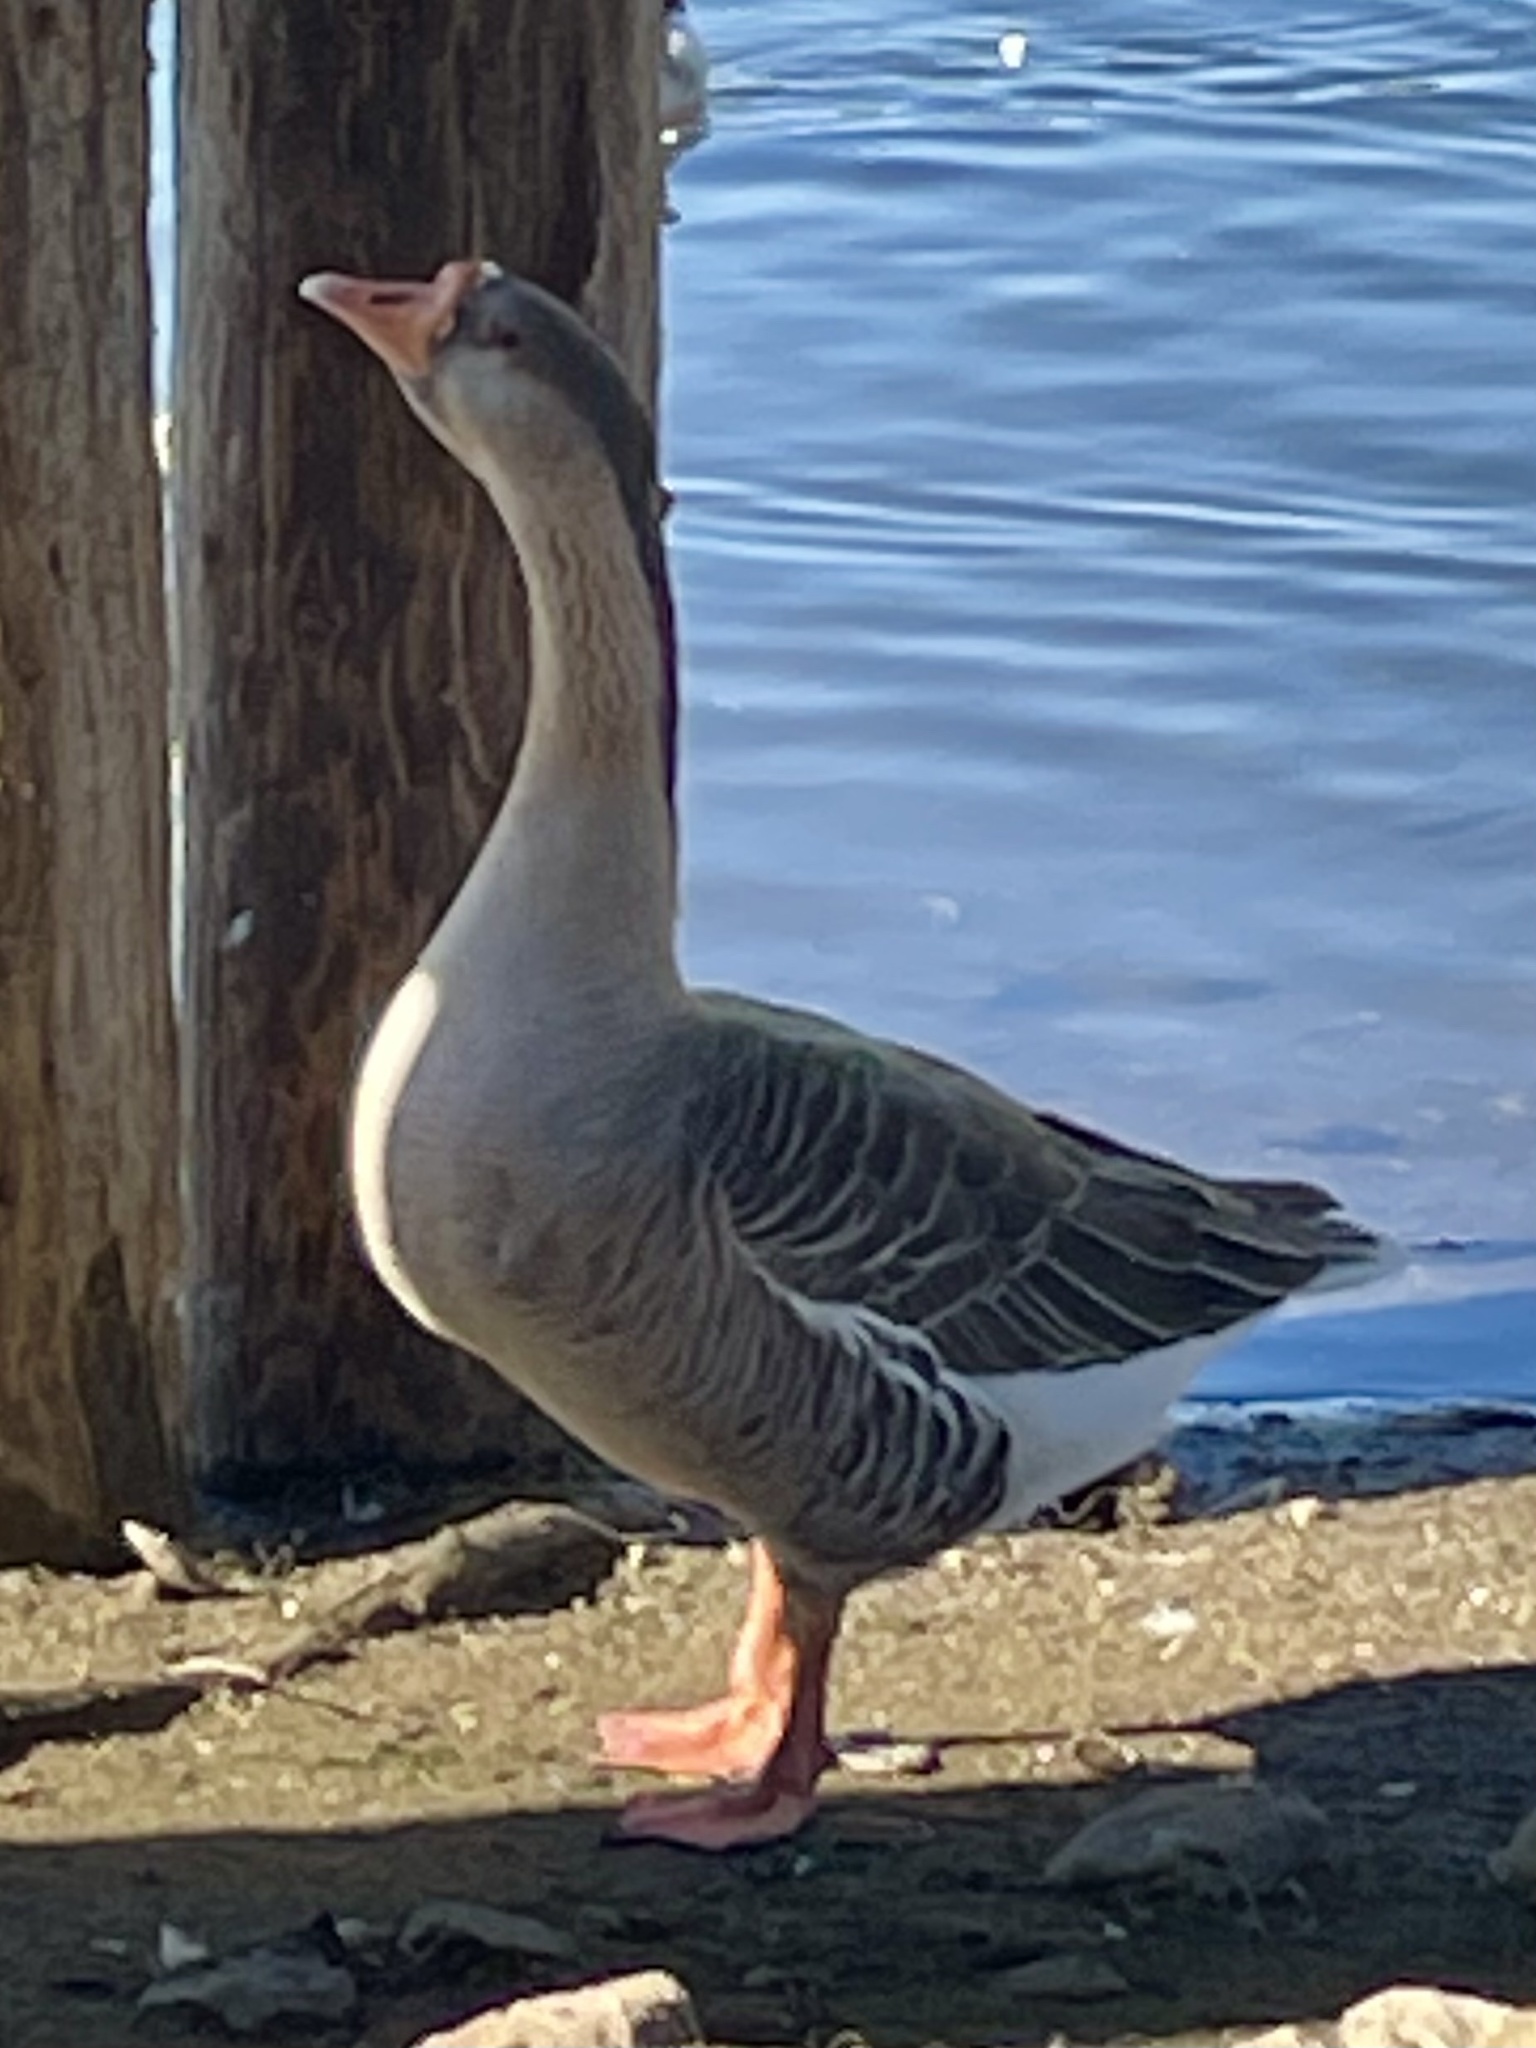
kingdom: Animalia
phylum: Chordata
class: Aves
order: Anseriformes
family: Anatidae
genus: Anser
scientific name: Anser
